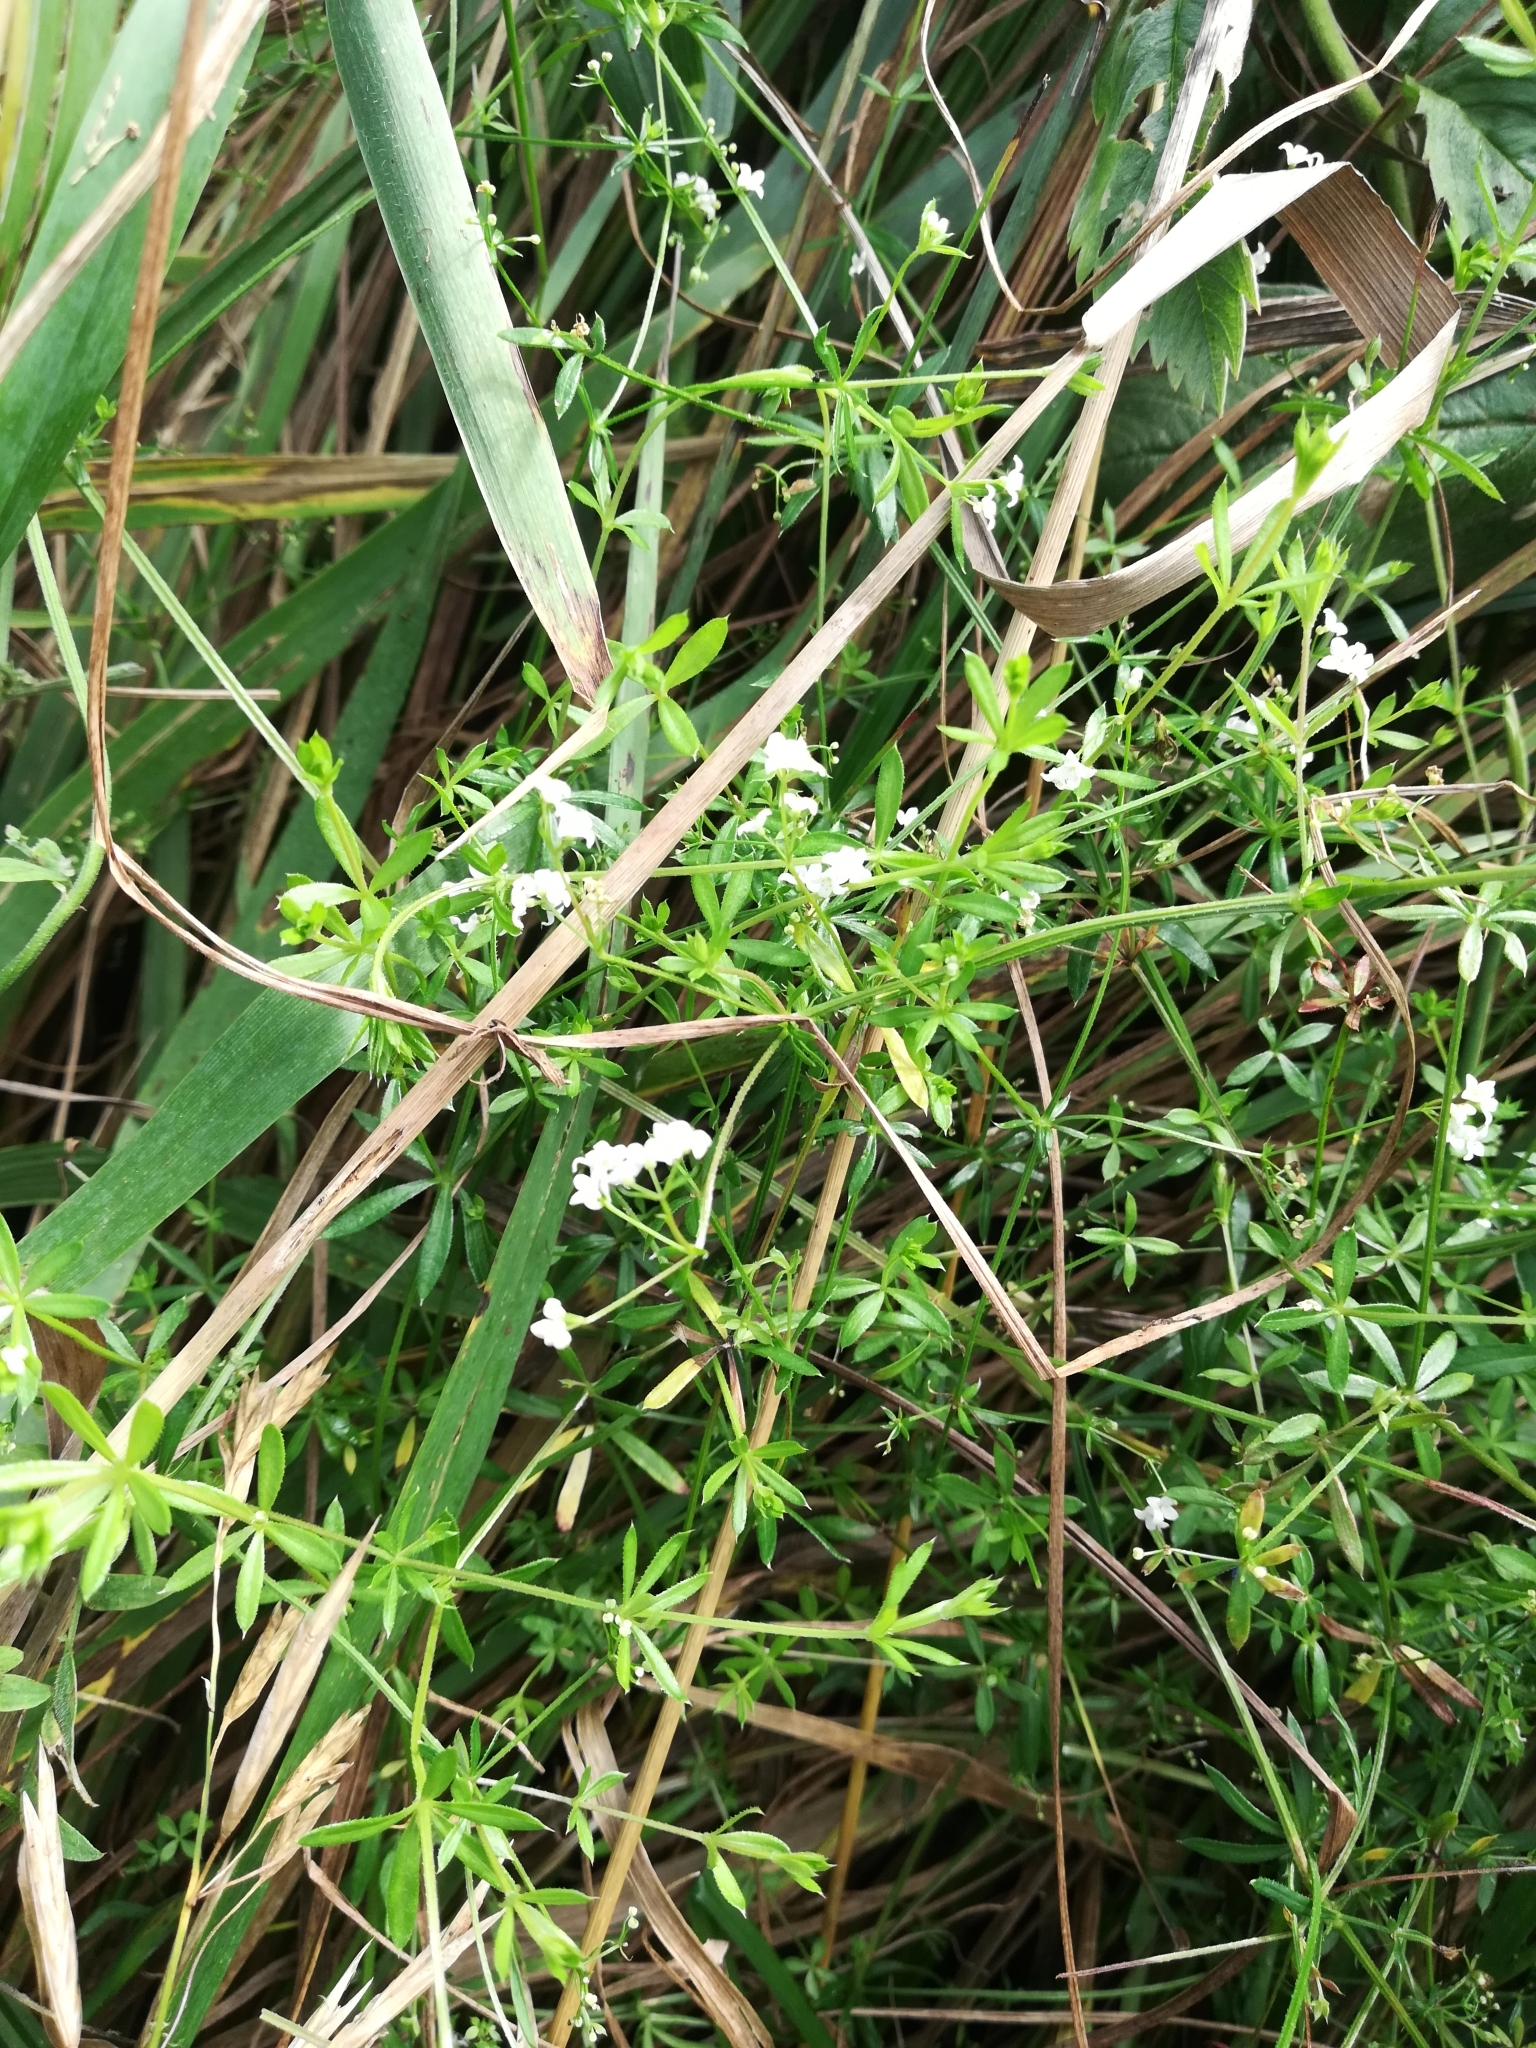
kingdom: Plantae
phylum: Tracheophyta
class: Magnoliopsida
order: Gentianales
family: Rubiaceae
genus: Galium
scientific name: Galium uliginosum
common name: Fen bedstraw
